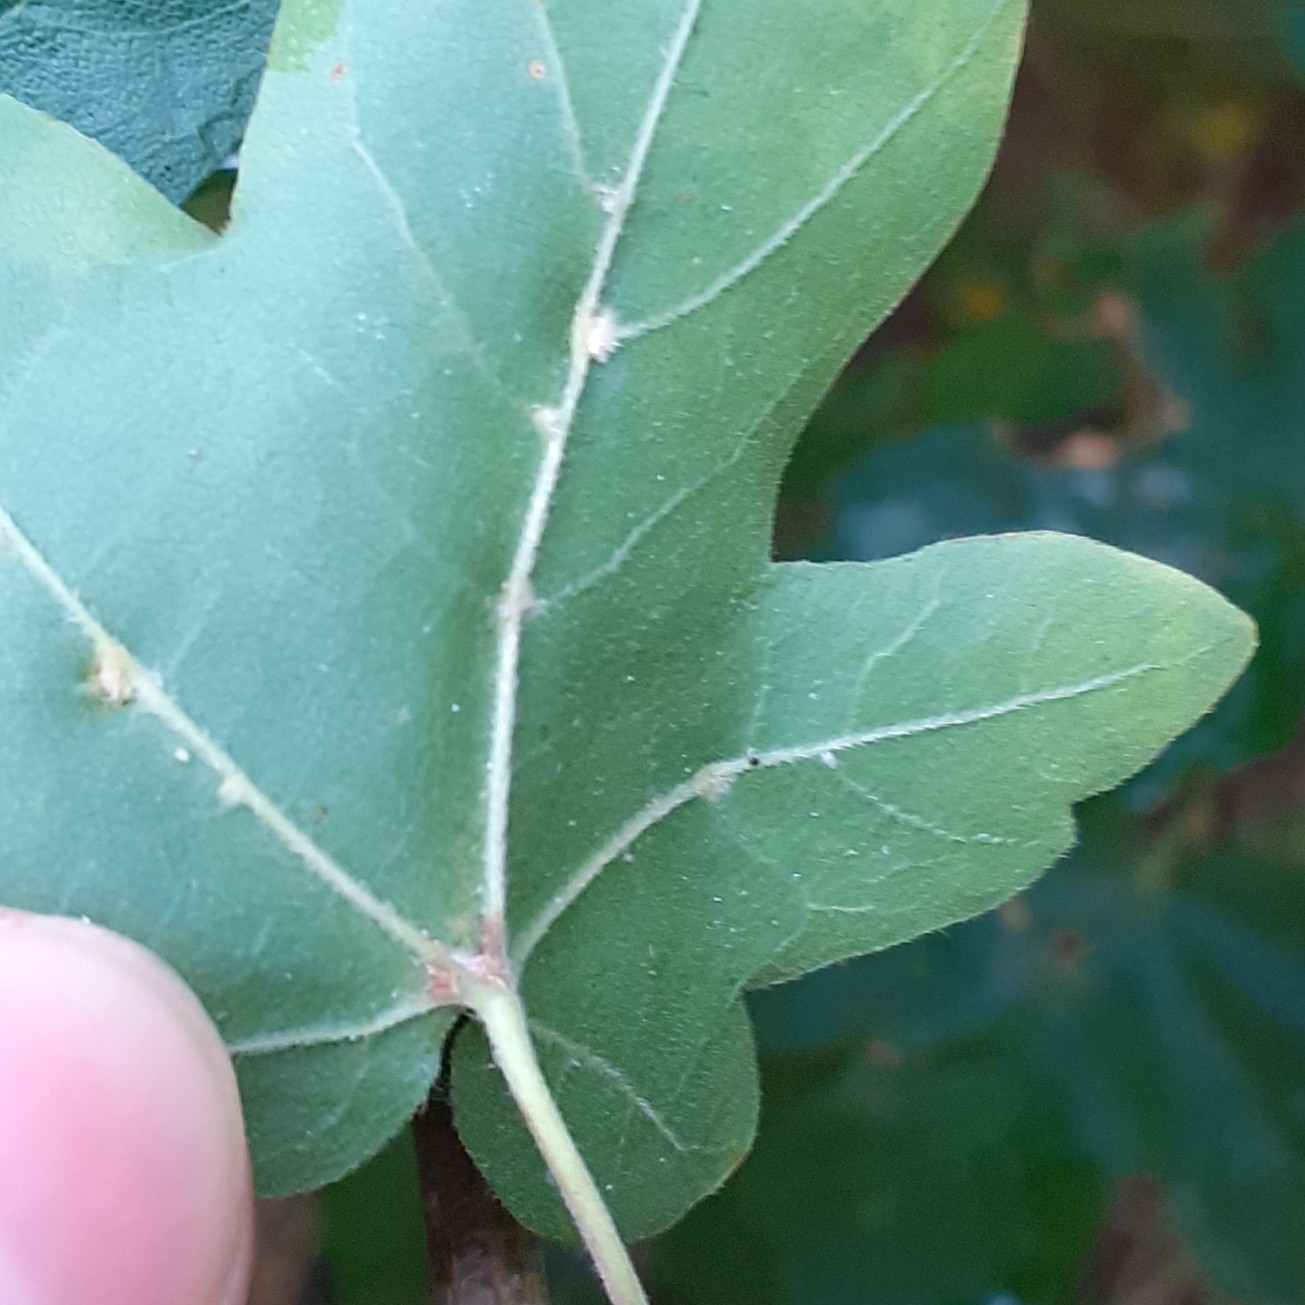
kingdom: Animalia
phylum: Arthropoda
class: Arachnida
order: Trombidiformes
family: Eriophyidae
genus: Aceria
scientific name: Aceria macrochelus
